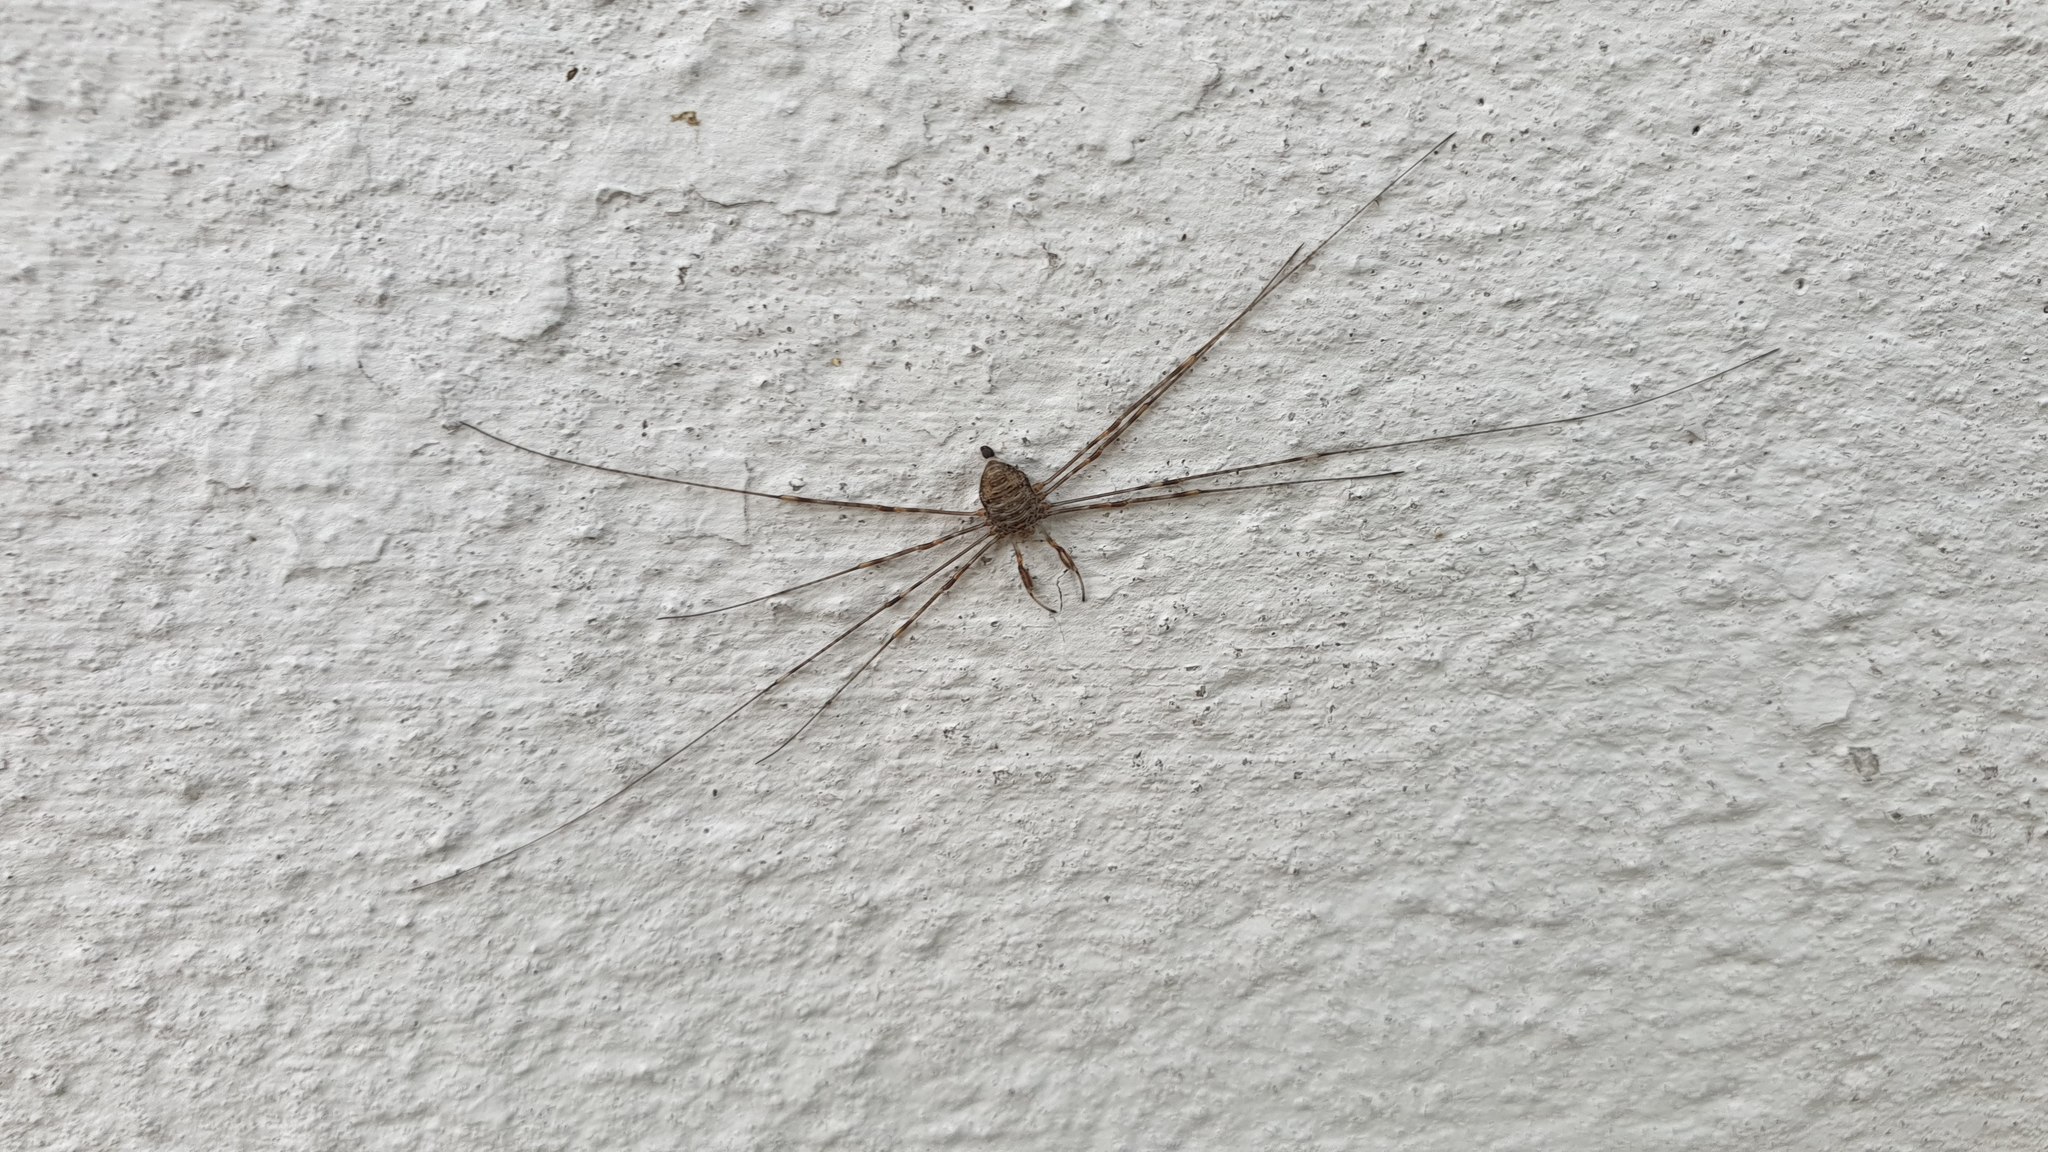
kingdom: Animalia
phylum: Arthropoda
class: Arachnida
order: Opiliones
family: Phalangiidae
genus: Dicranopalpus
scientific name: Dicranopalpus ramosus
